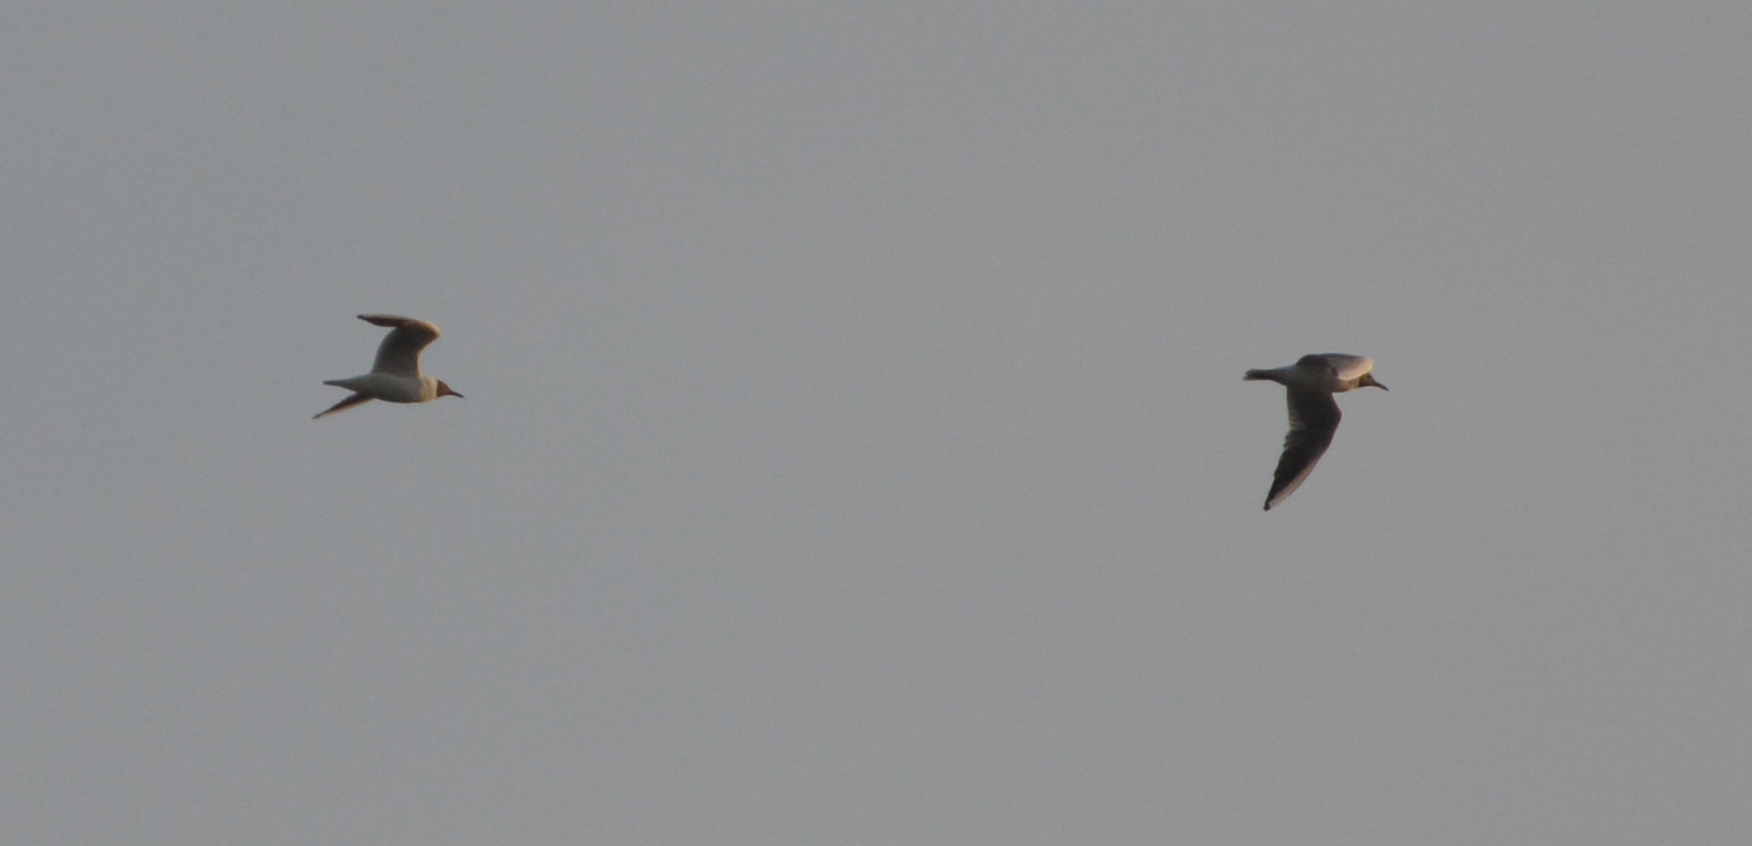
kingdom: Animalia
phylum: Chordata
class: Aves
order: Charadriiformes
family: Laridae
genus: Chroicocephalus
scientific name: Chroicocephalus ridibundus
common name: Black-headed gull
